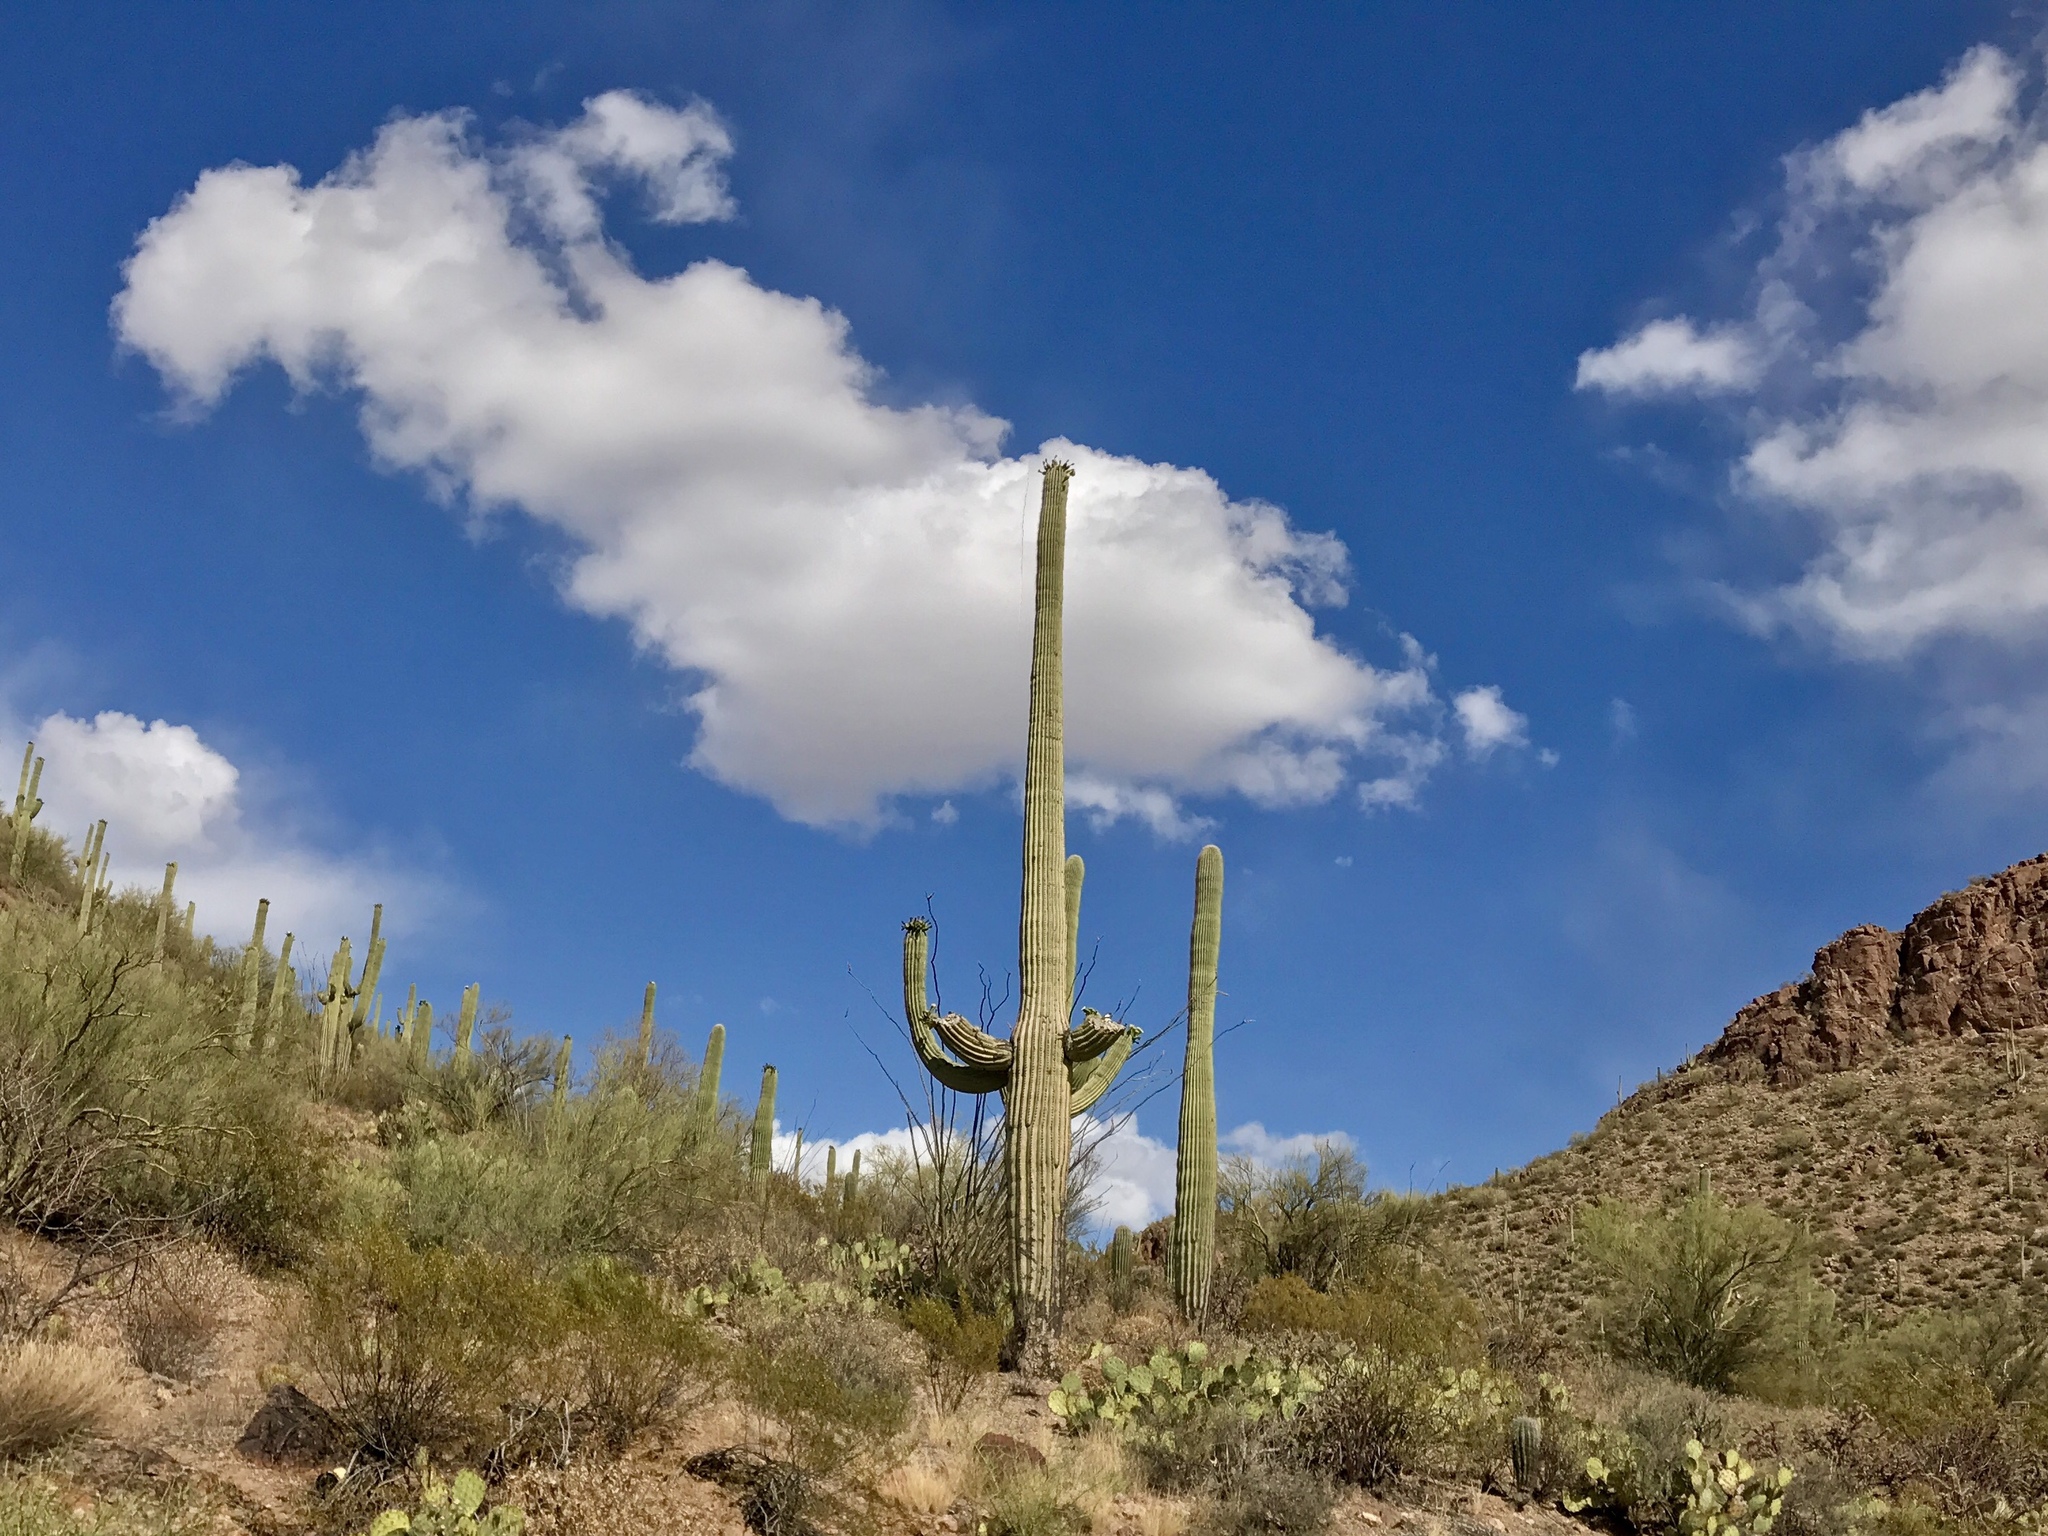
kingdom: Plantae
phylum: Tracheophyta
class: Magnoliopsida
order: Caryophyllales
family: Cactaceae
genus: Carnegiea
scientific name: Carnegiea gigantea
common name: Saguaro
